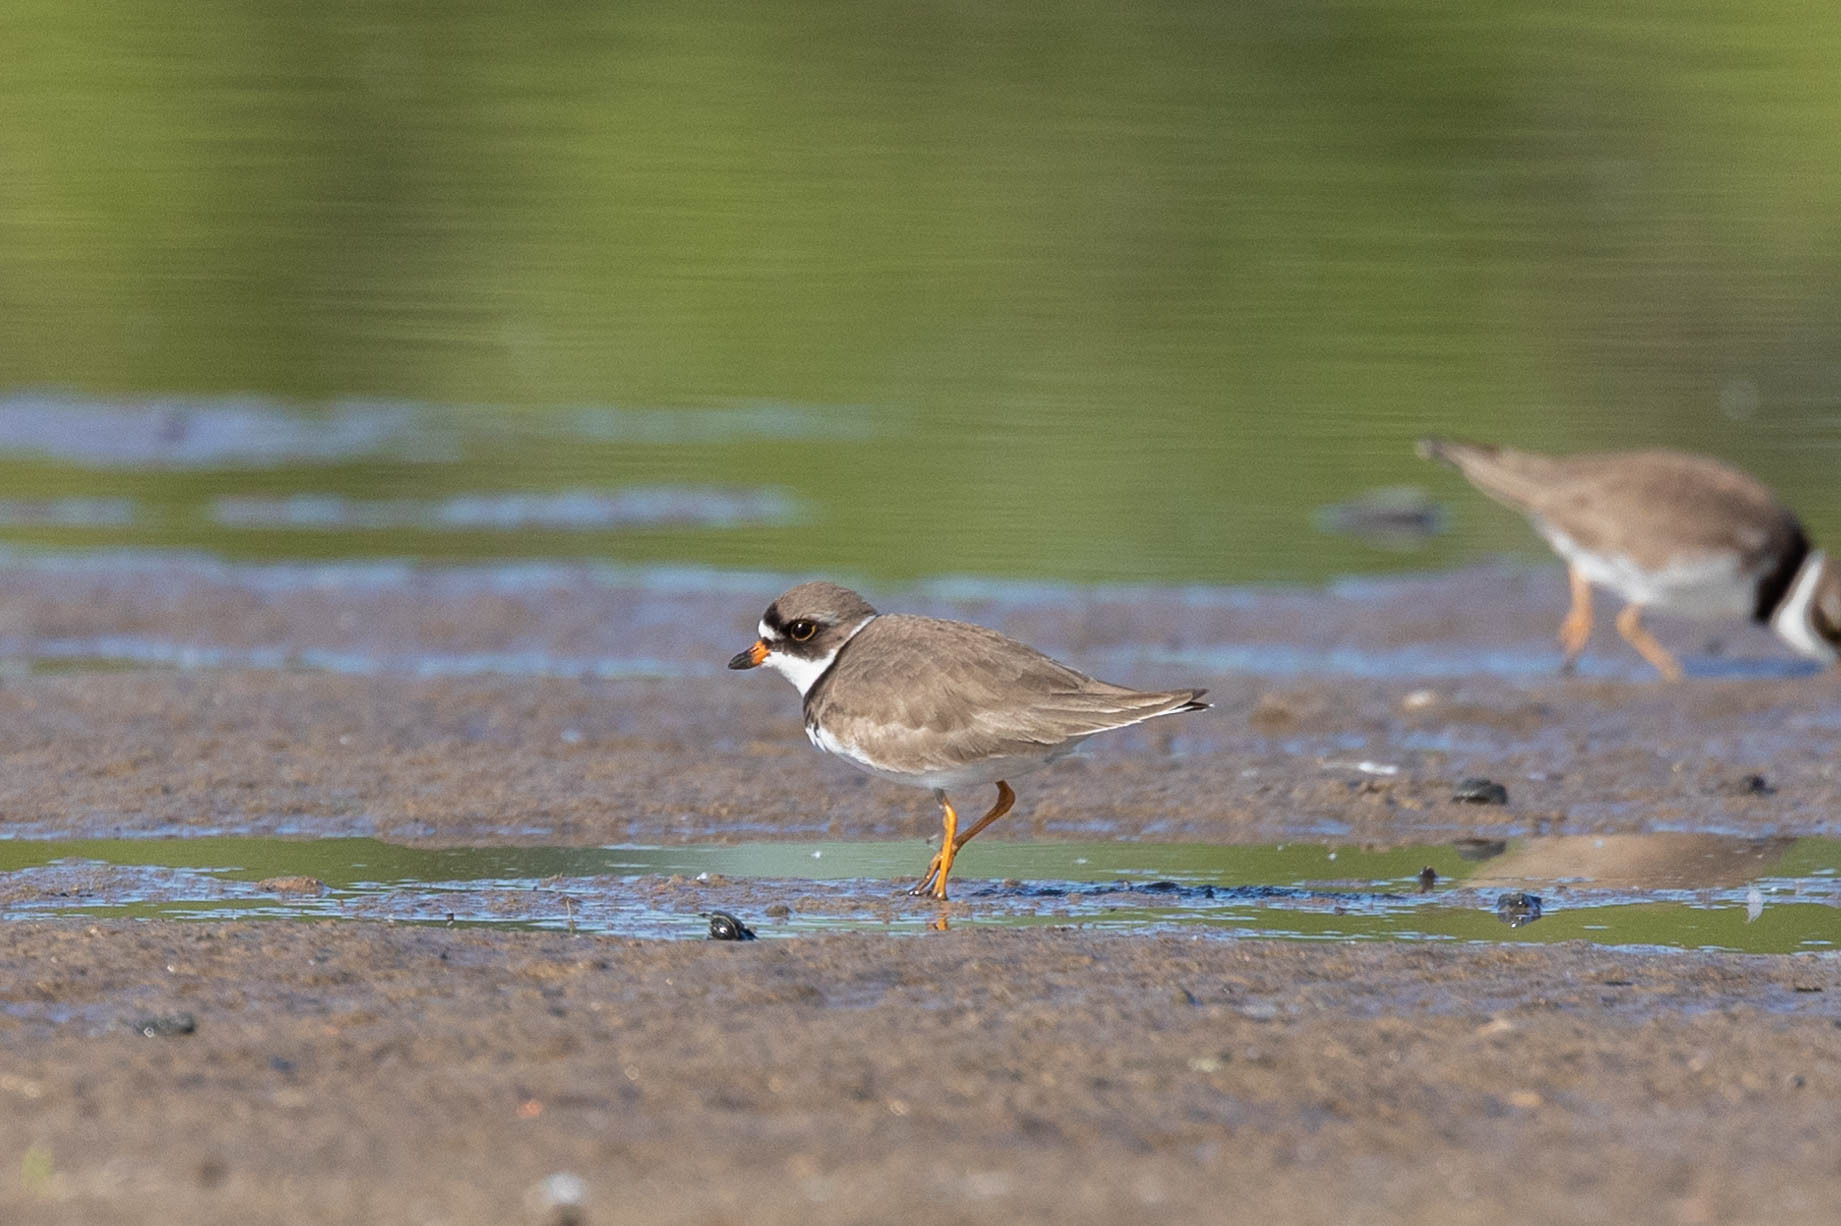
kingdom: Animalia
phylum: Chordata
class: Aves
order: Charadriiformes
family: Charadriidae
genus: Charadrius
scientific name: Charadrius semipalmatus
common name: Semipalmated plover
